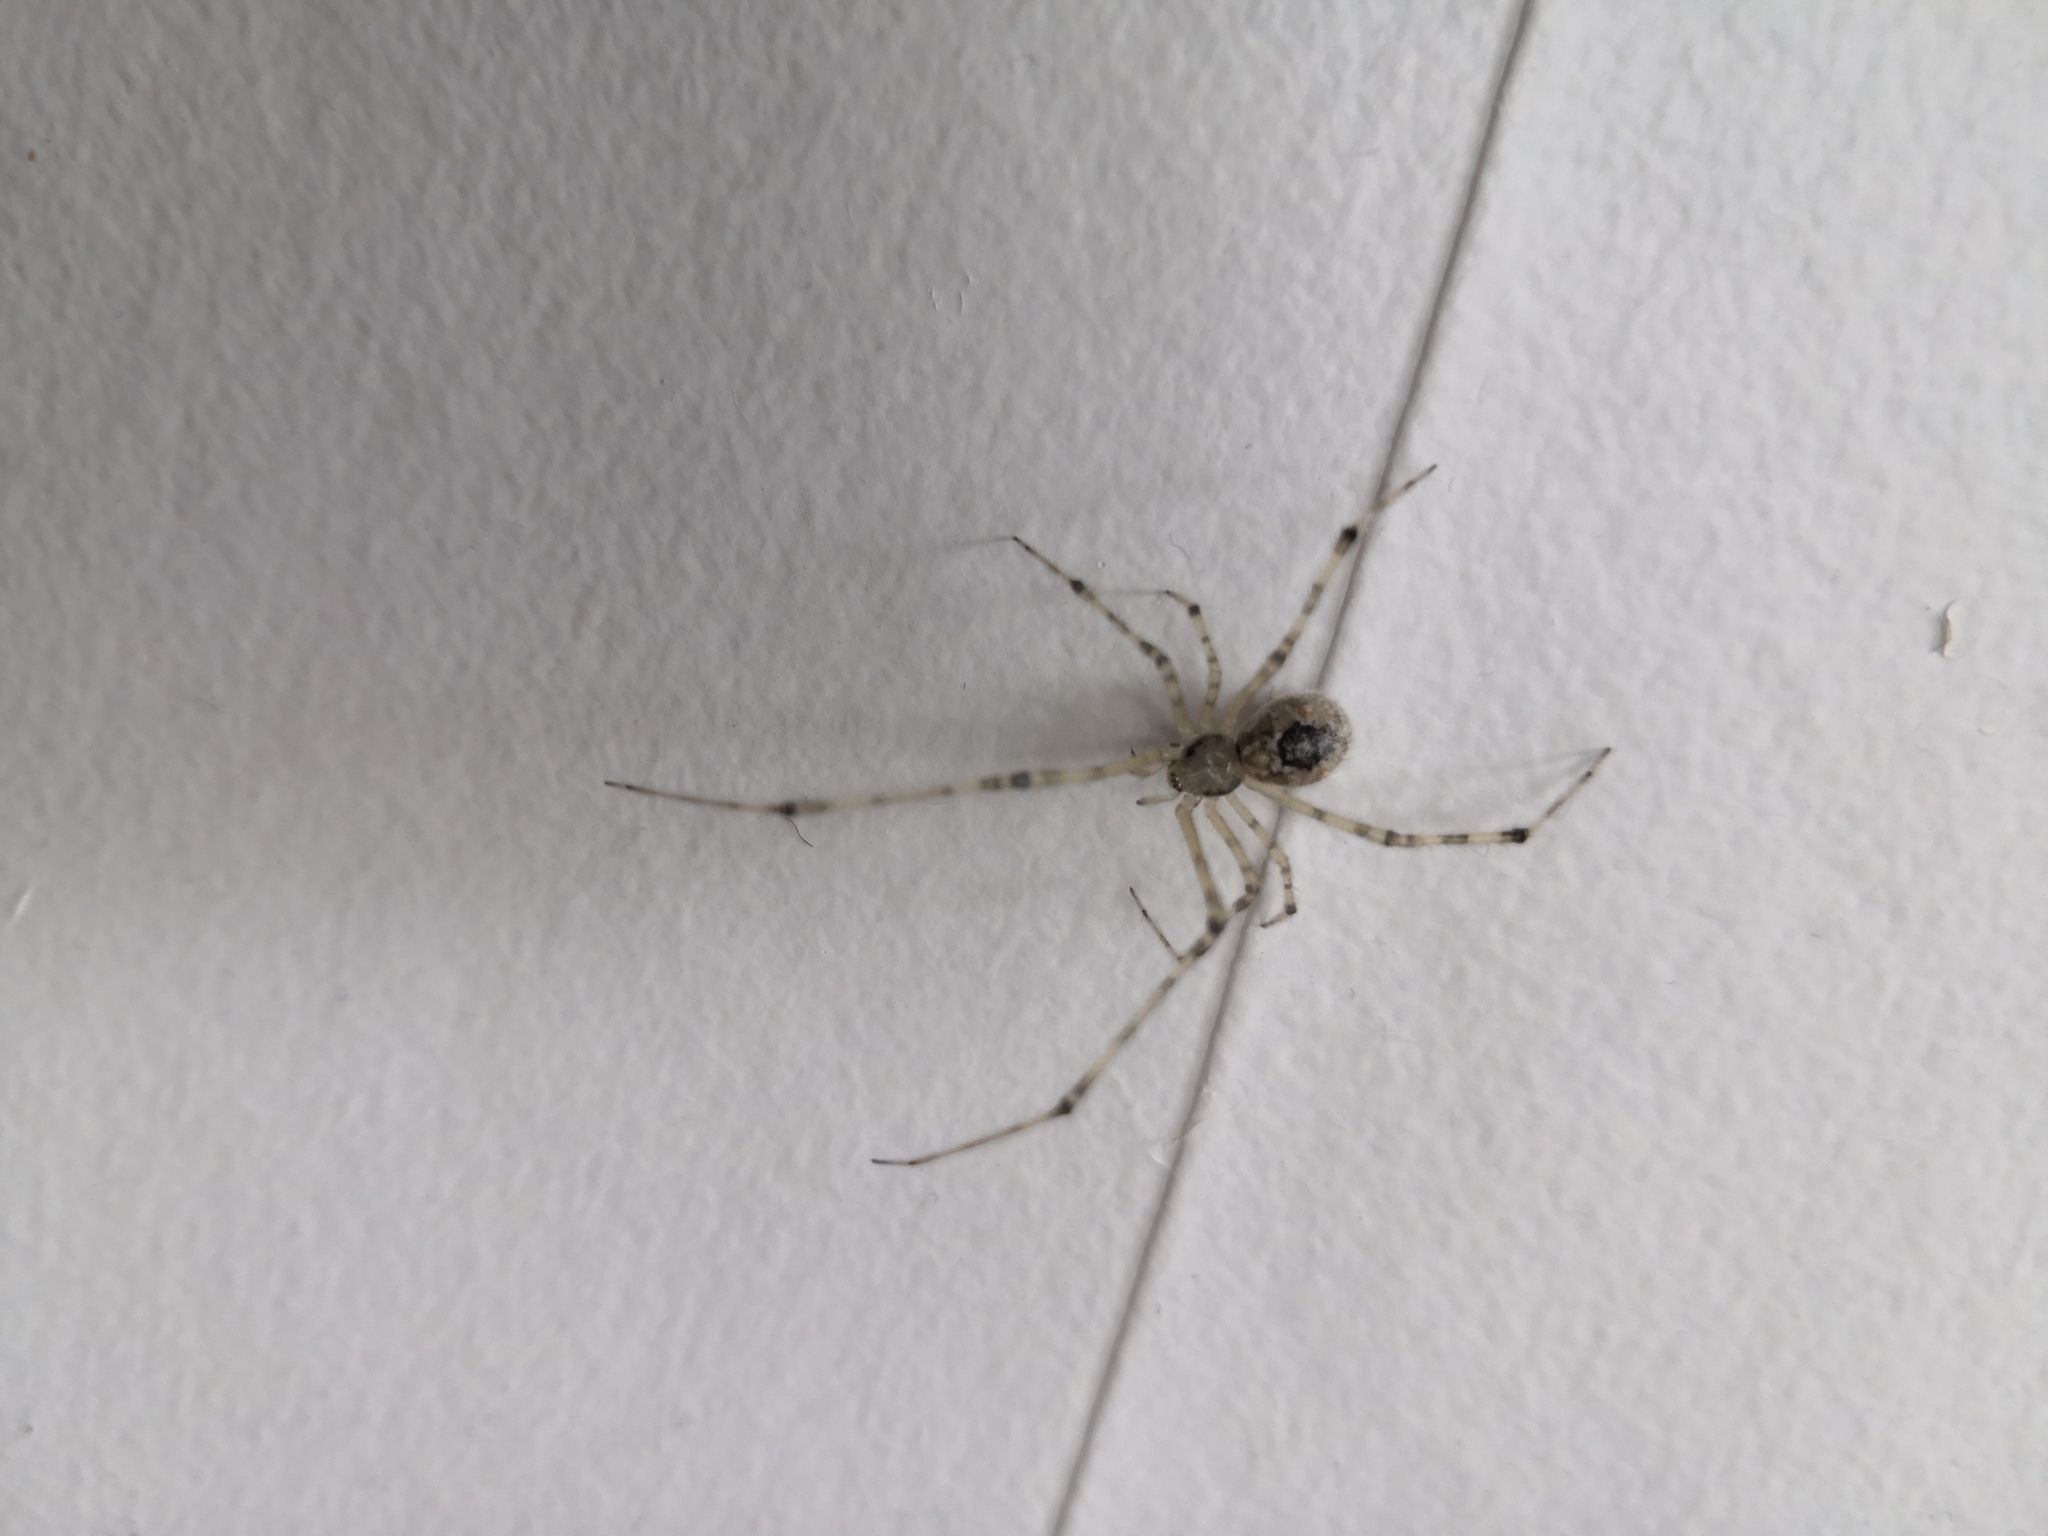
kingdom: Animalia
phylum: Arthropoda
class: Arachnida
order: Araneae
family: Theridiidae
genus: Cryptachaea
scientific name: Cryptachaea gigantipes
